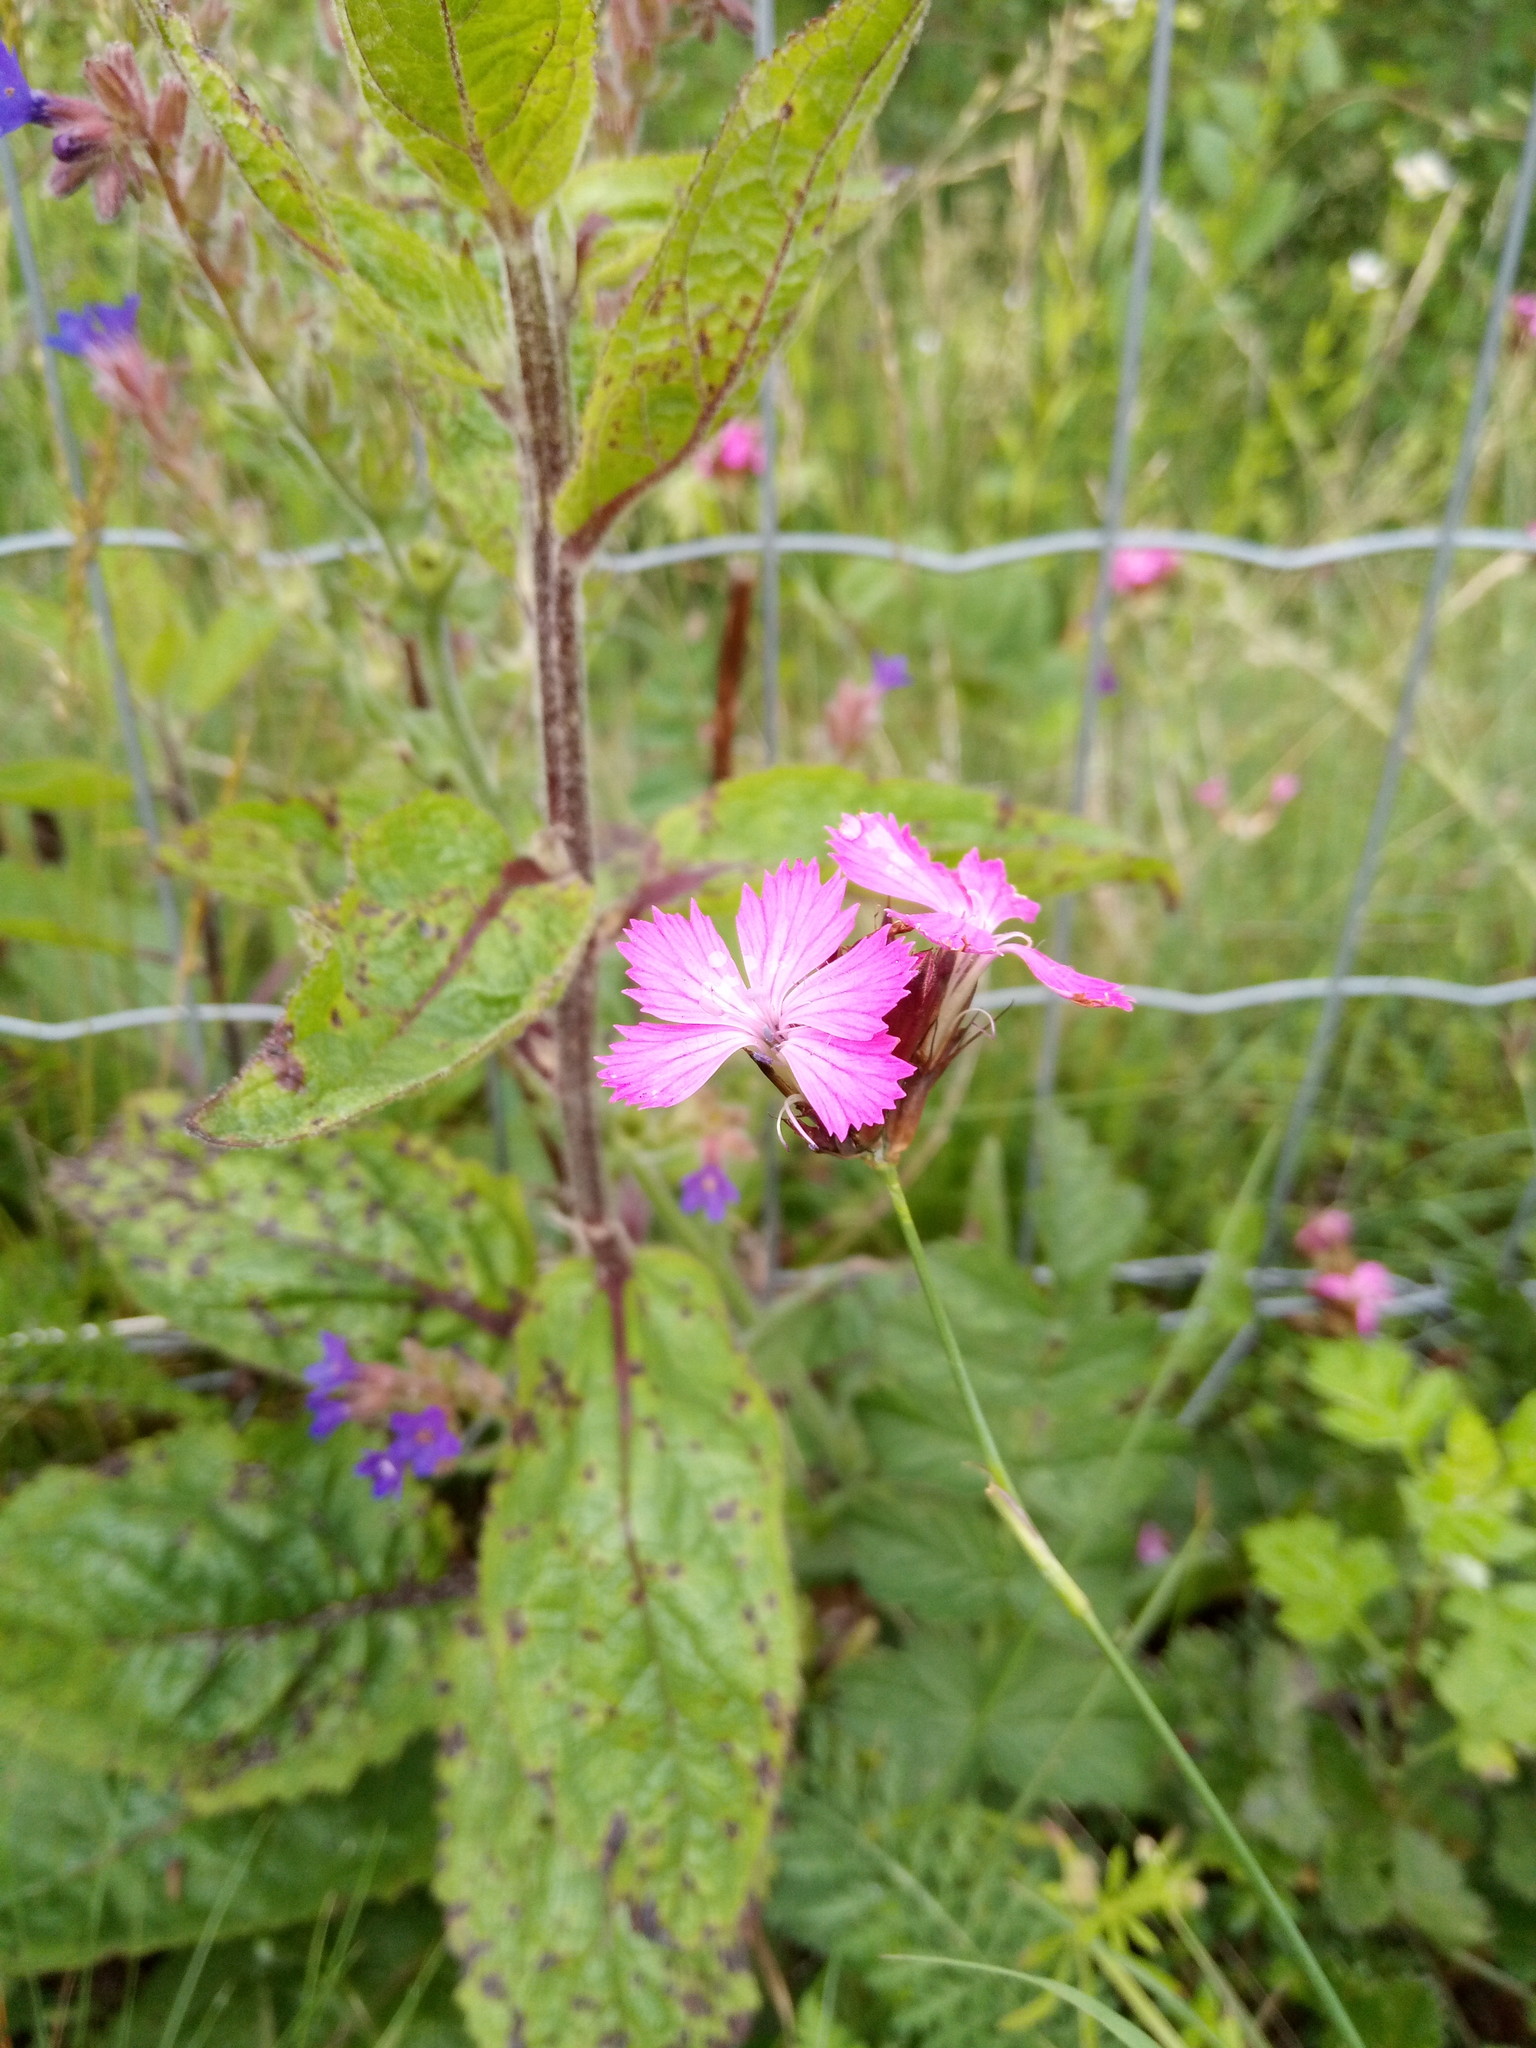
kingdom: Plantae
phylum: Tracheophyta
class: Magnoliopsida
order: Caryophyllales
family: Caryophyllaceae
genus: Dianthus
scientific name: Dianthus carthusianorum
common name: Carthusian pink
